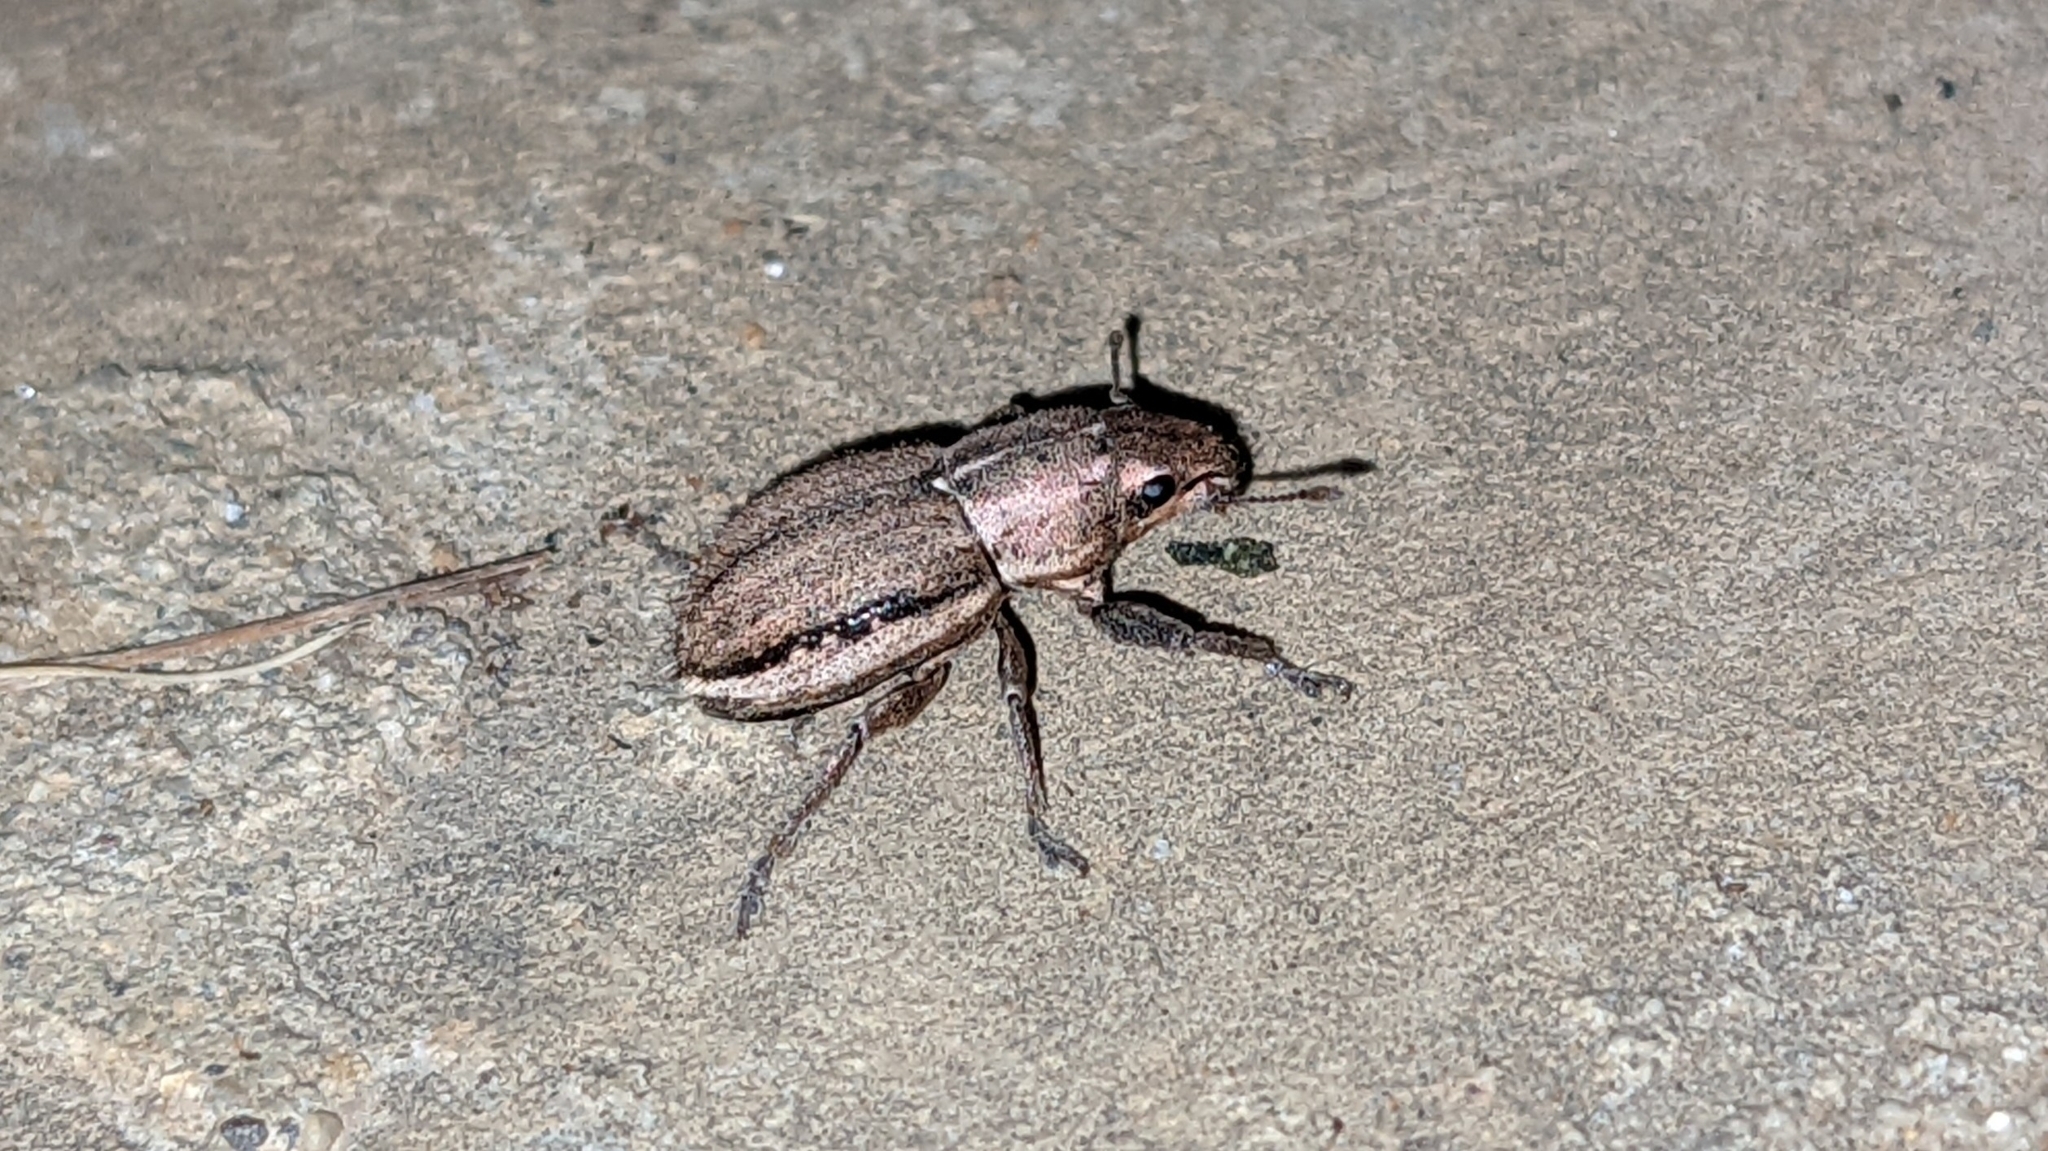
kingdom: Animalia
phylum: Arthropoda
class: Insecta
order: Coleoptera
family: Curculionidae
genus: Naupactus
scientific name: Naupactus peregrinus
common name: Whitefringed beetle
